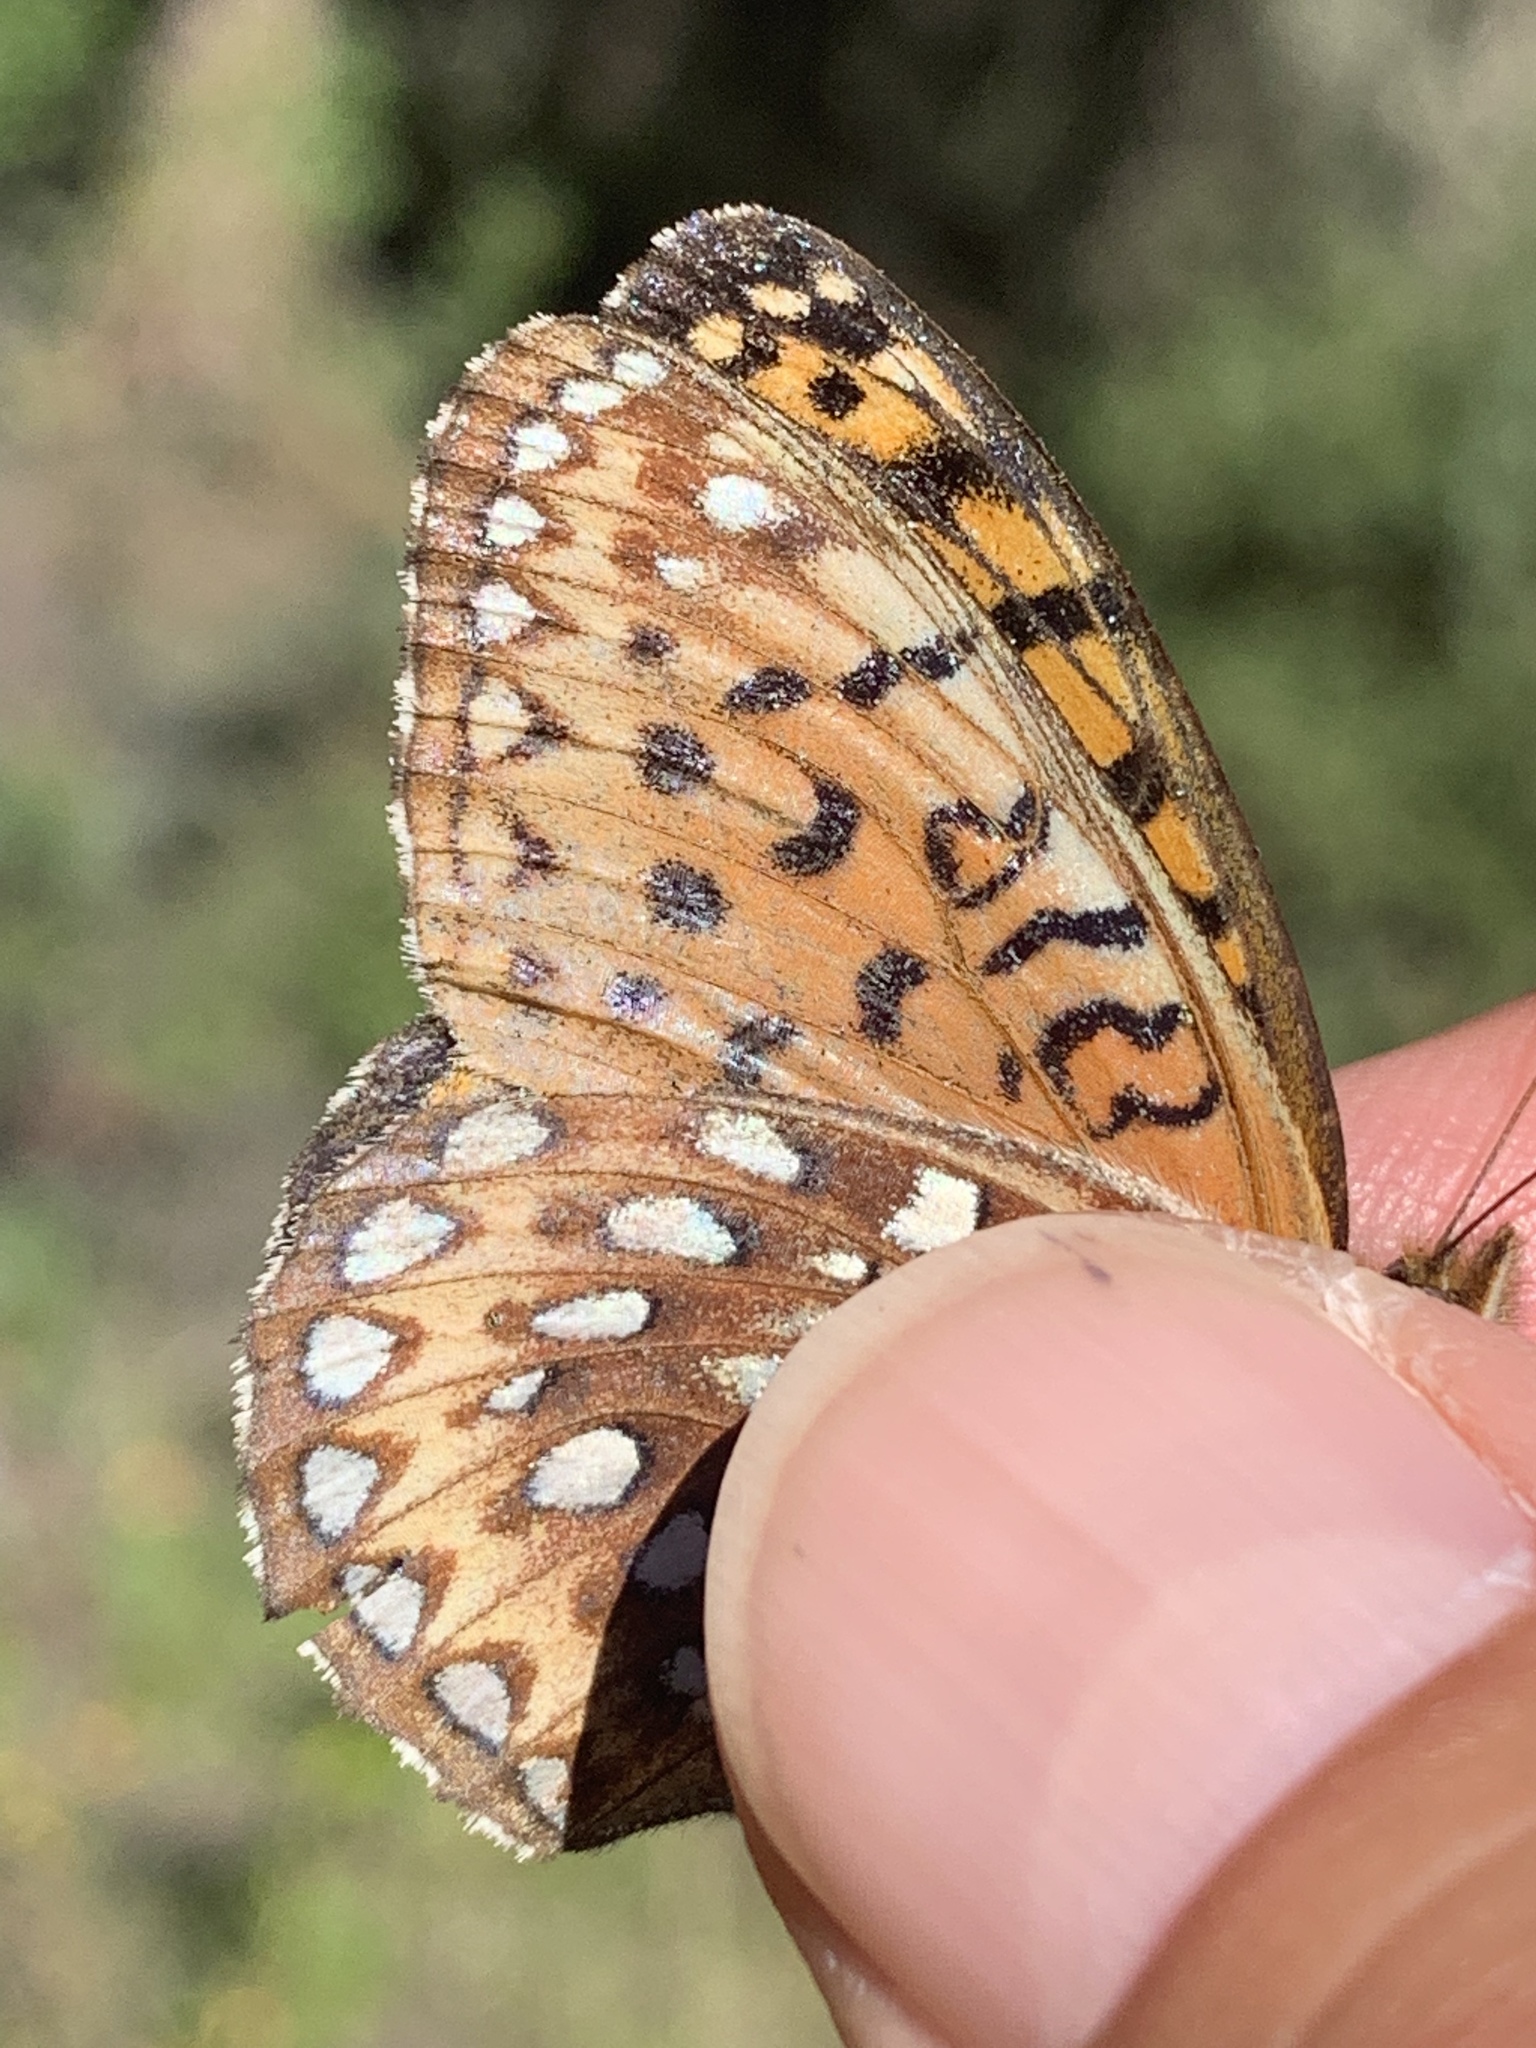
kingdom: Animalia
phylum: Arthropoda
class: Insecta
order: Lepidoptera
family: Nymphalidae
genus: Speyeria
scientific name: Speyeria atlantis
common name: Atlantis fritillary
